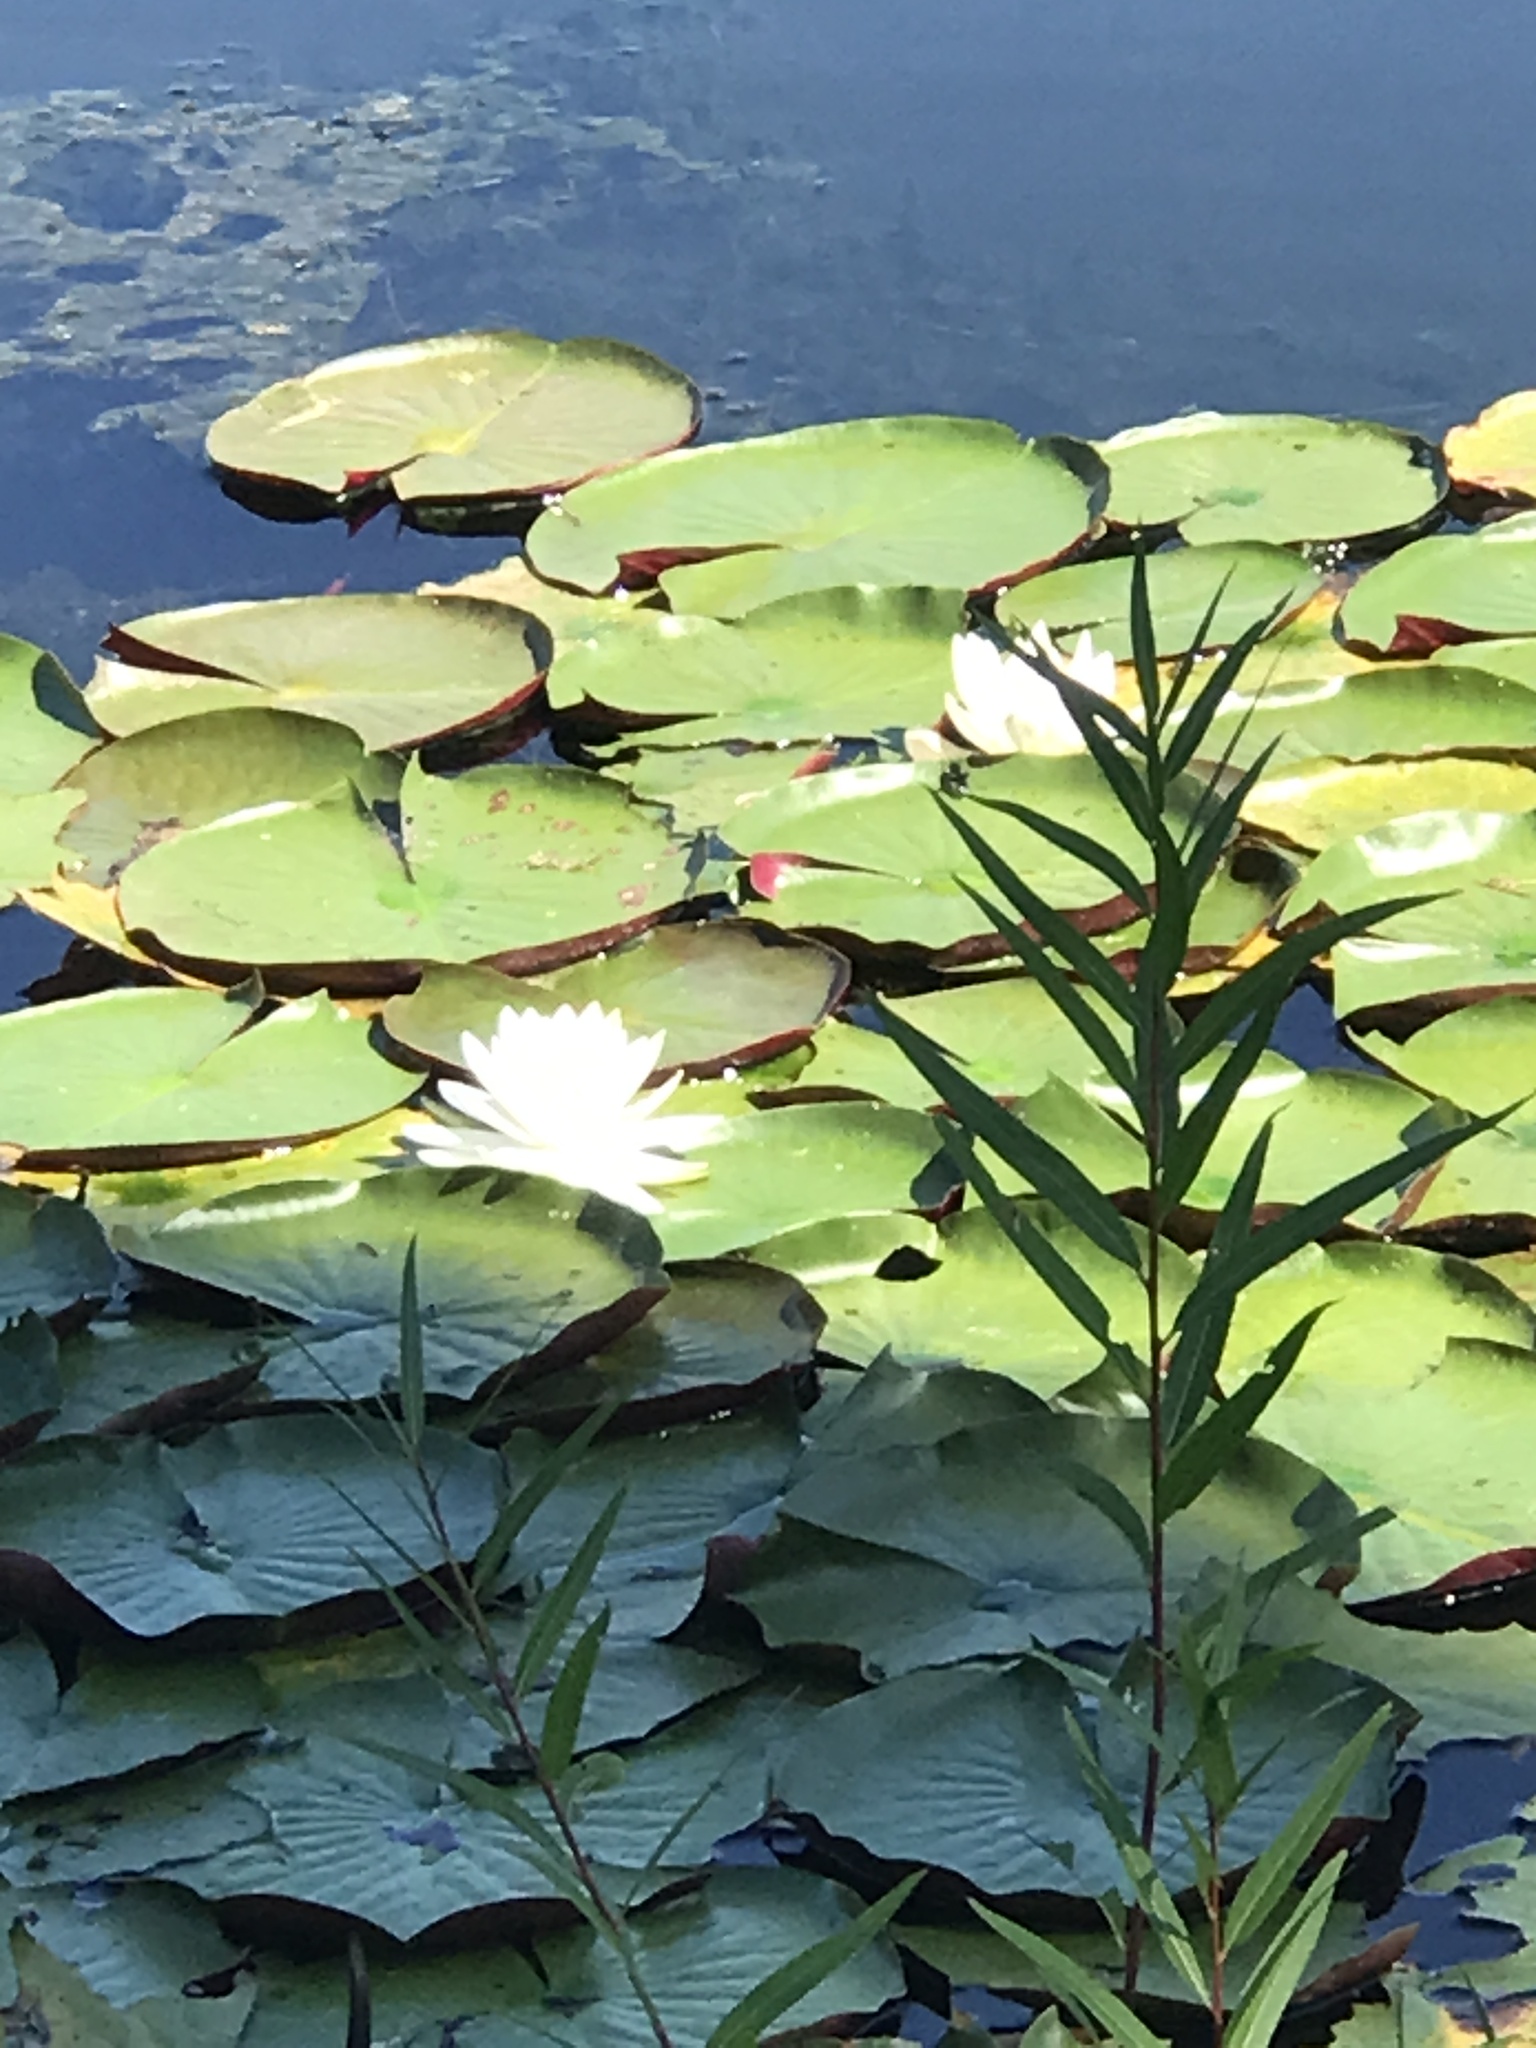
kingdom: Plantae
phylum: Tracheophyta
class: Magnoliopsida
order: Nymphaeales
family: Nymphaeaceae
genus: Nymphaea
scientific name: Nymphaea odorata
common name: Fragrant water-lily
